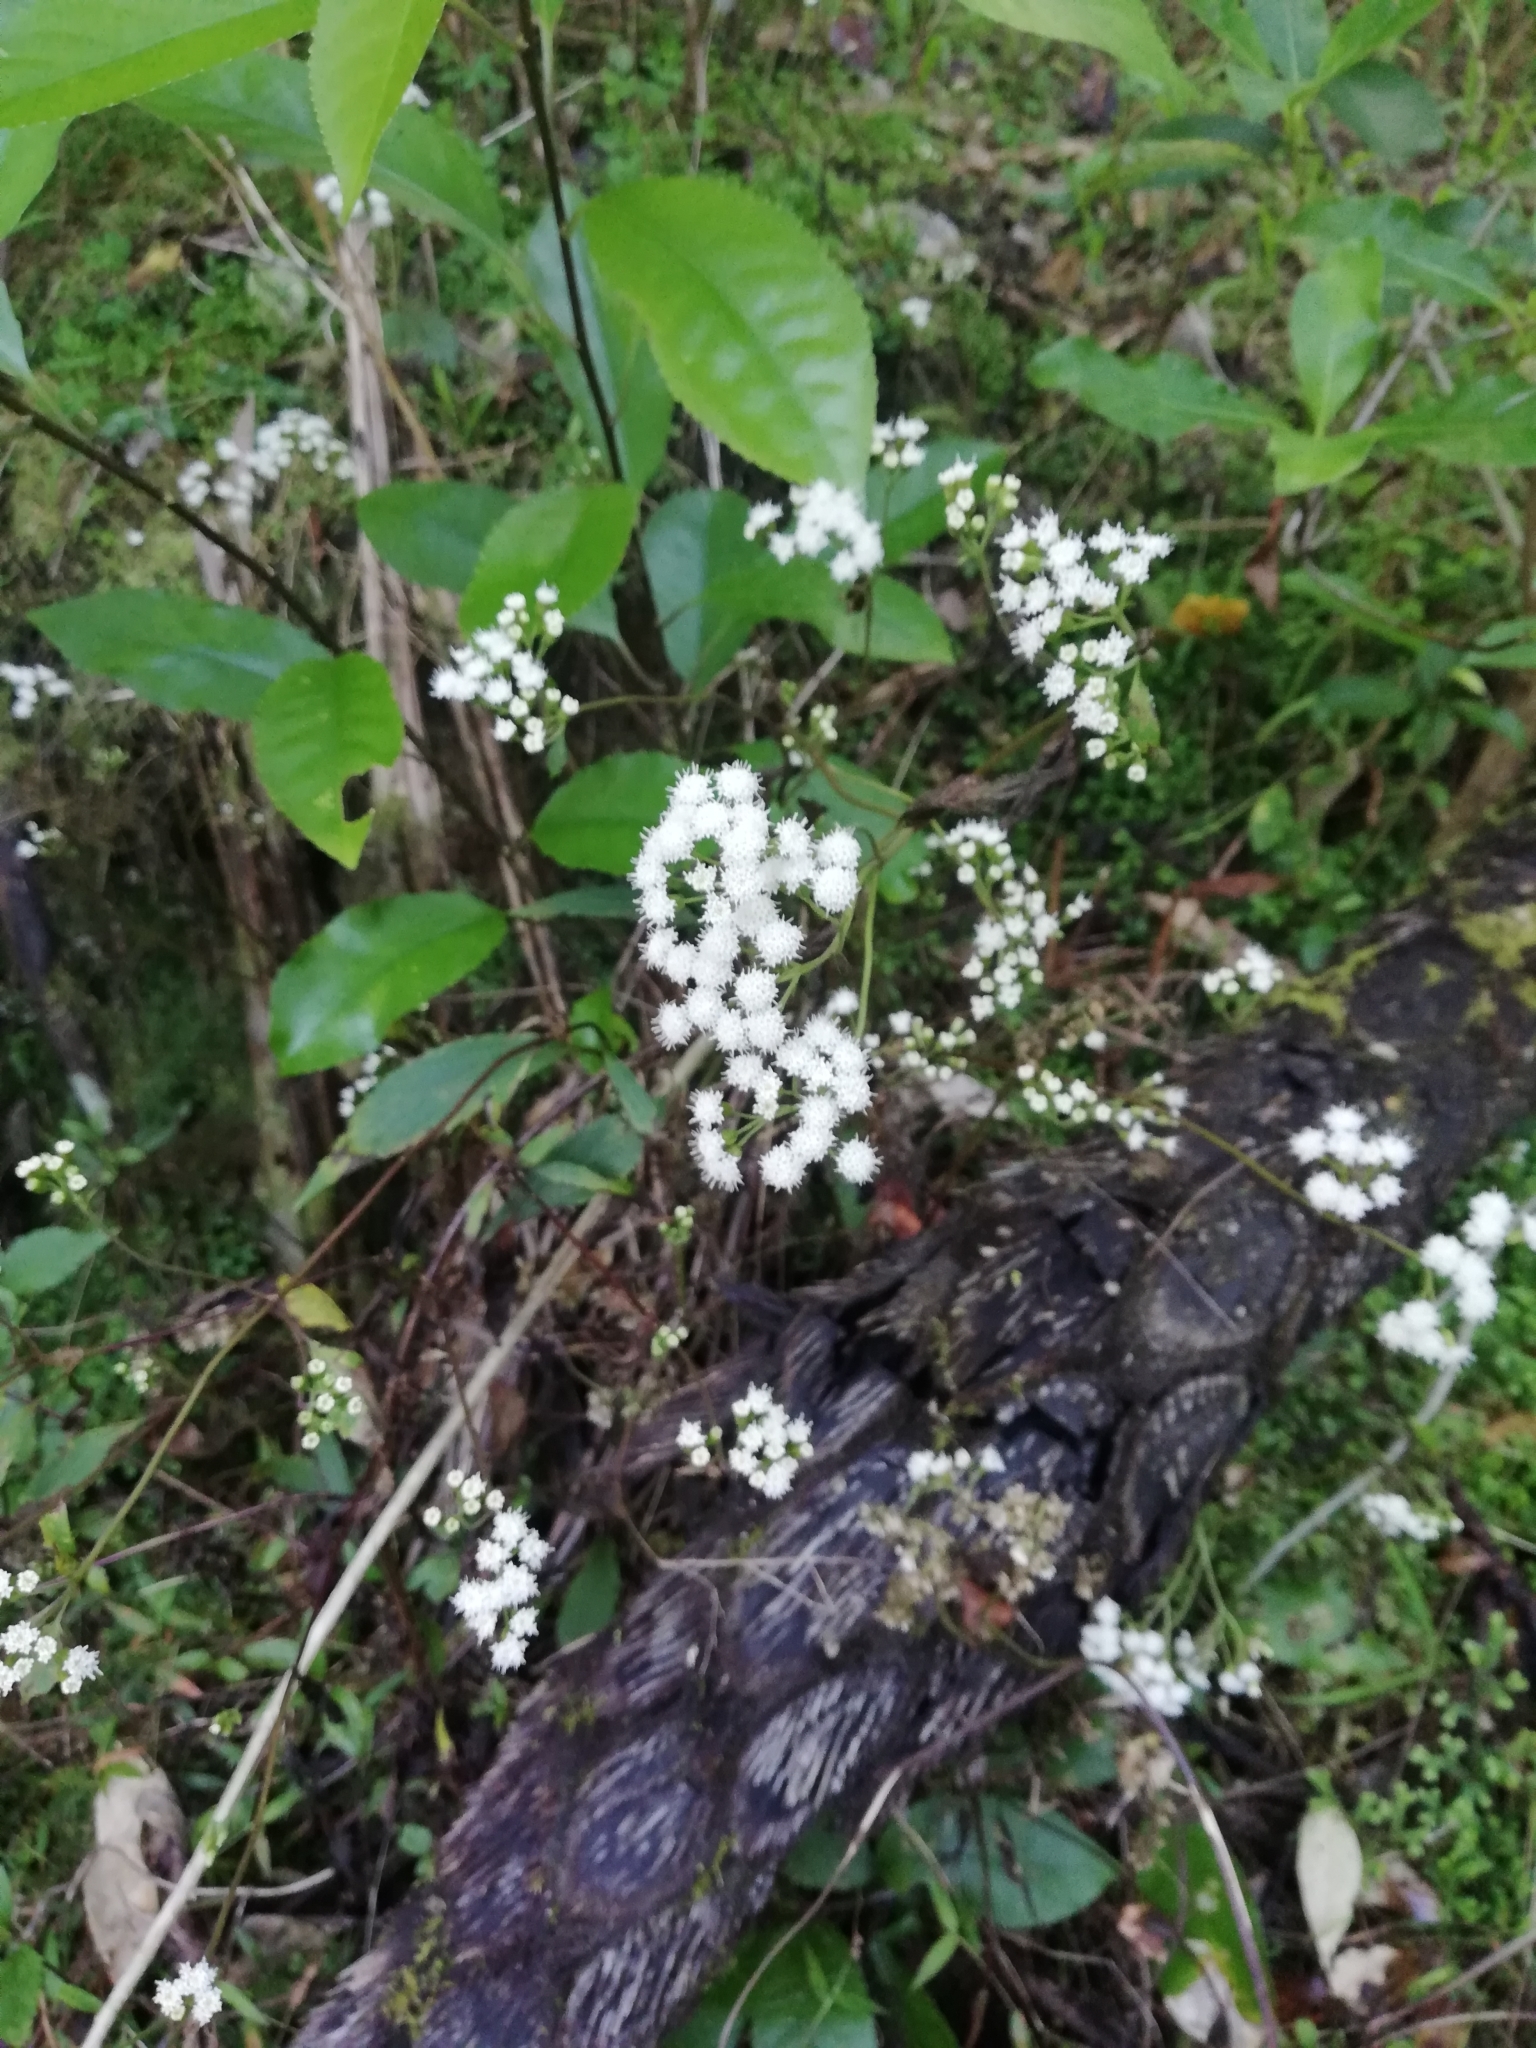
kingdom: Plantae
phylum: Tracheophyta
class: Magnoliopsida
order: Asterales
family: Asteraceae
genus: Ageratina
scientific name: Ageratina riparia
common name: Creeping croftonweed
